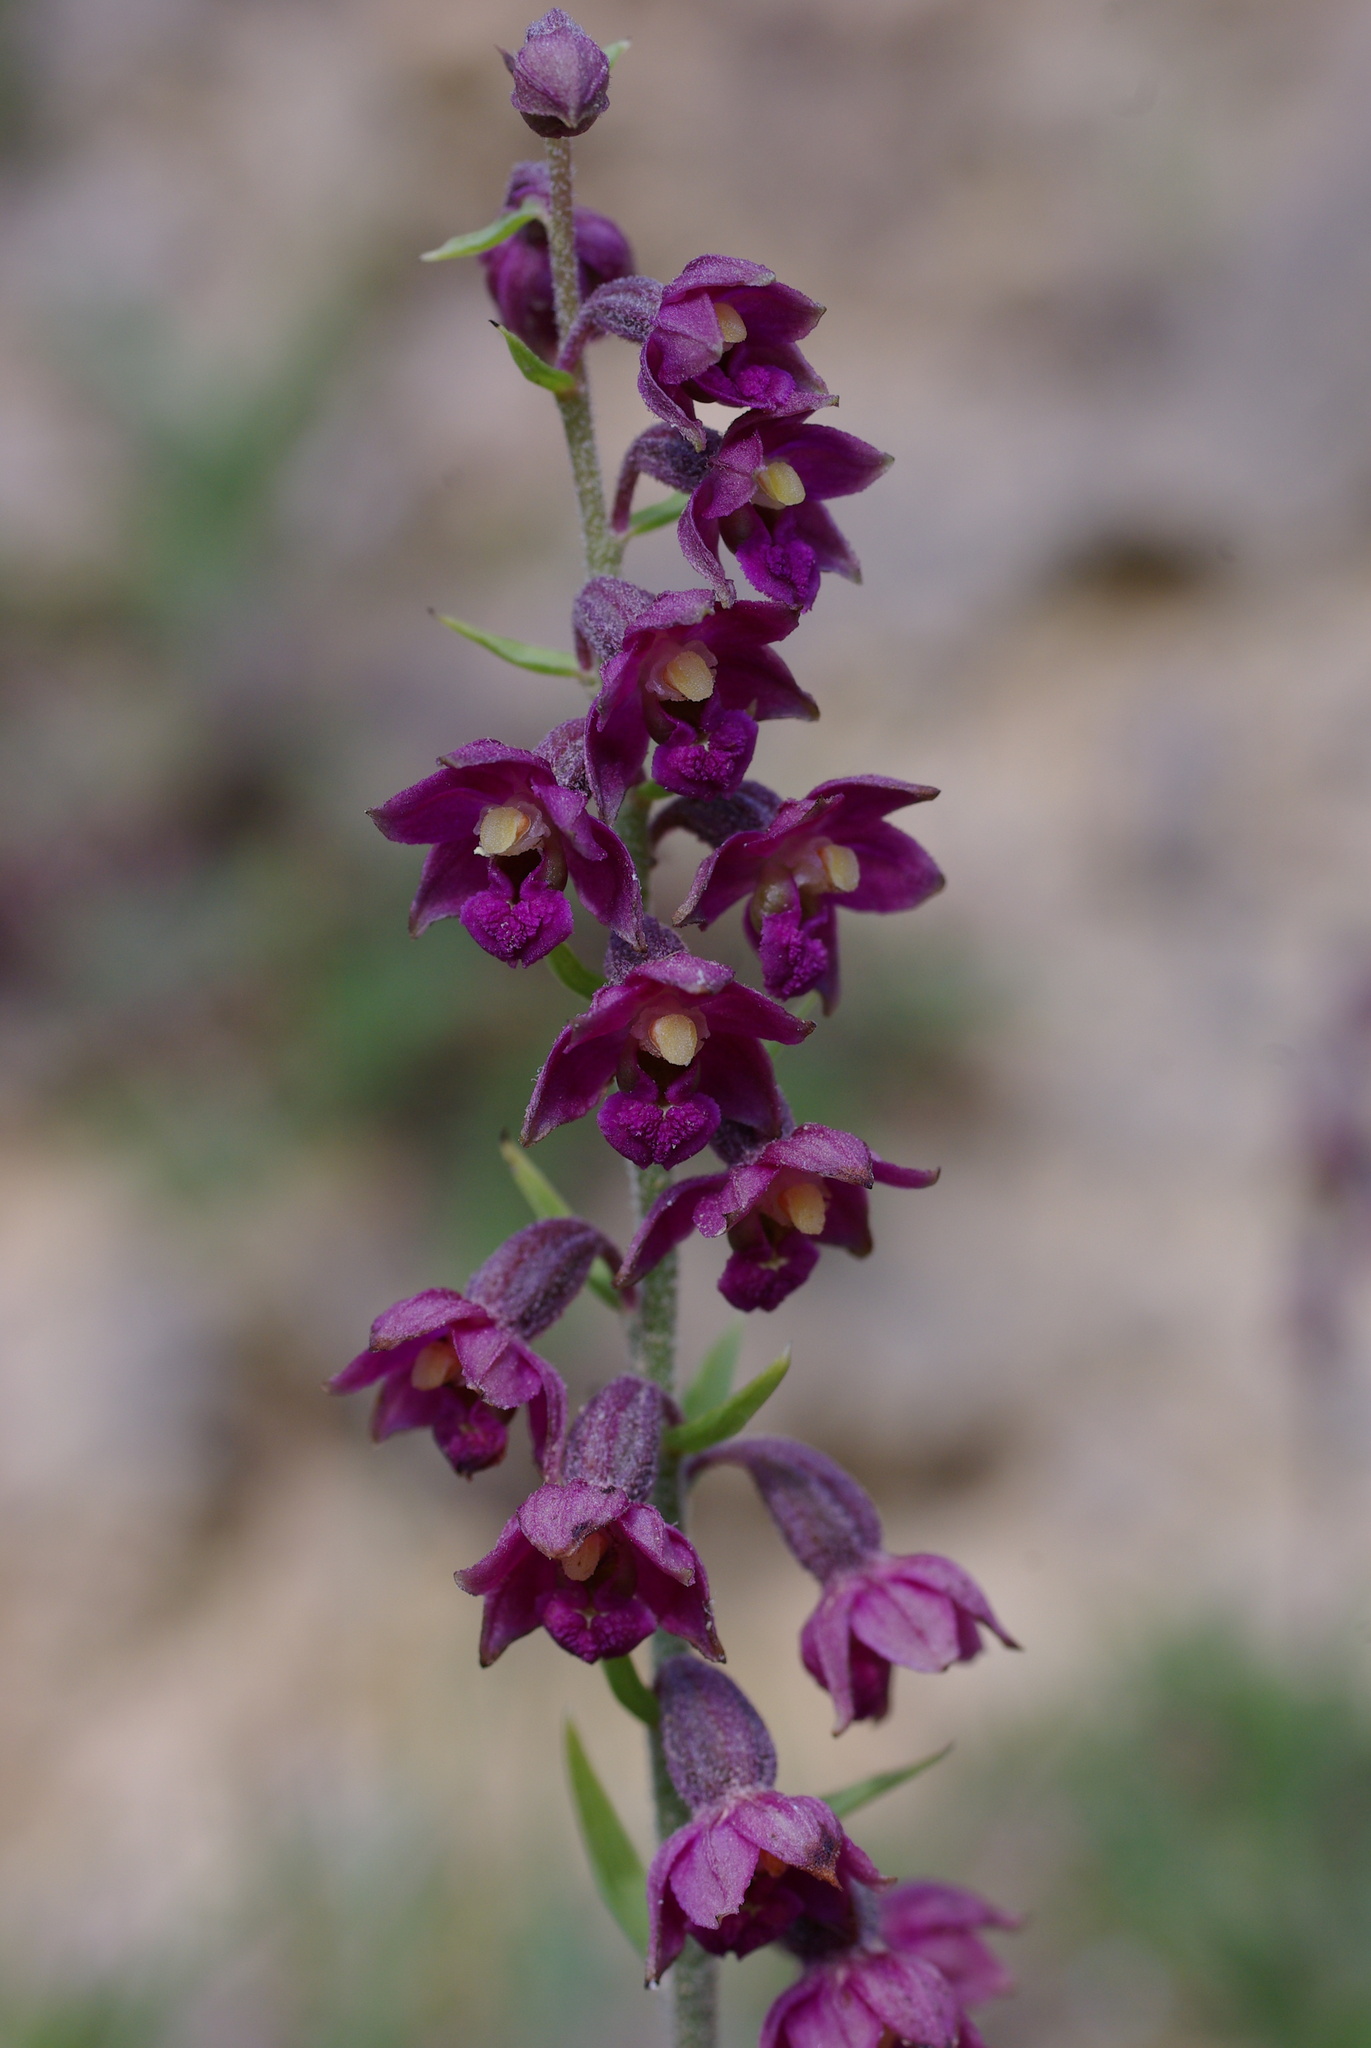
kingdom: Plantae
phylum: Tracheophyta
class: Liliopsida
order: Asparagales
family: Orchidaceae
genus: Epipactis
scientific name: Epipactis atrorubens
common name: Dark-red helleborine
